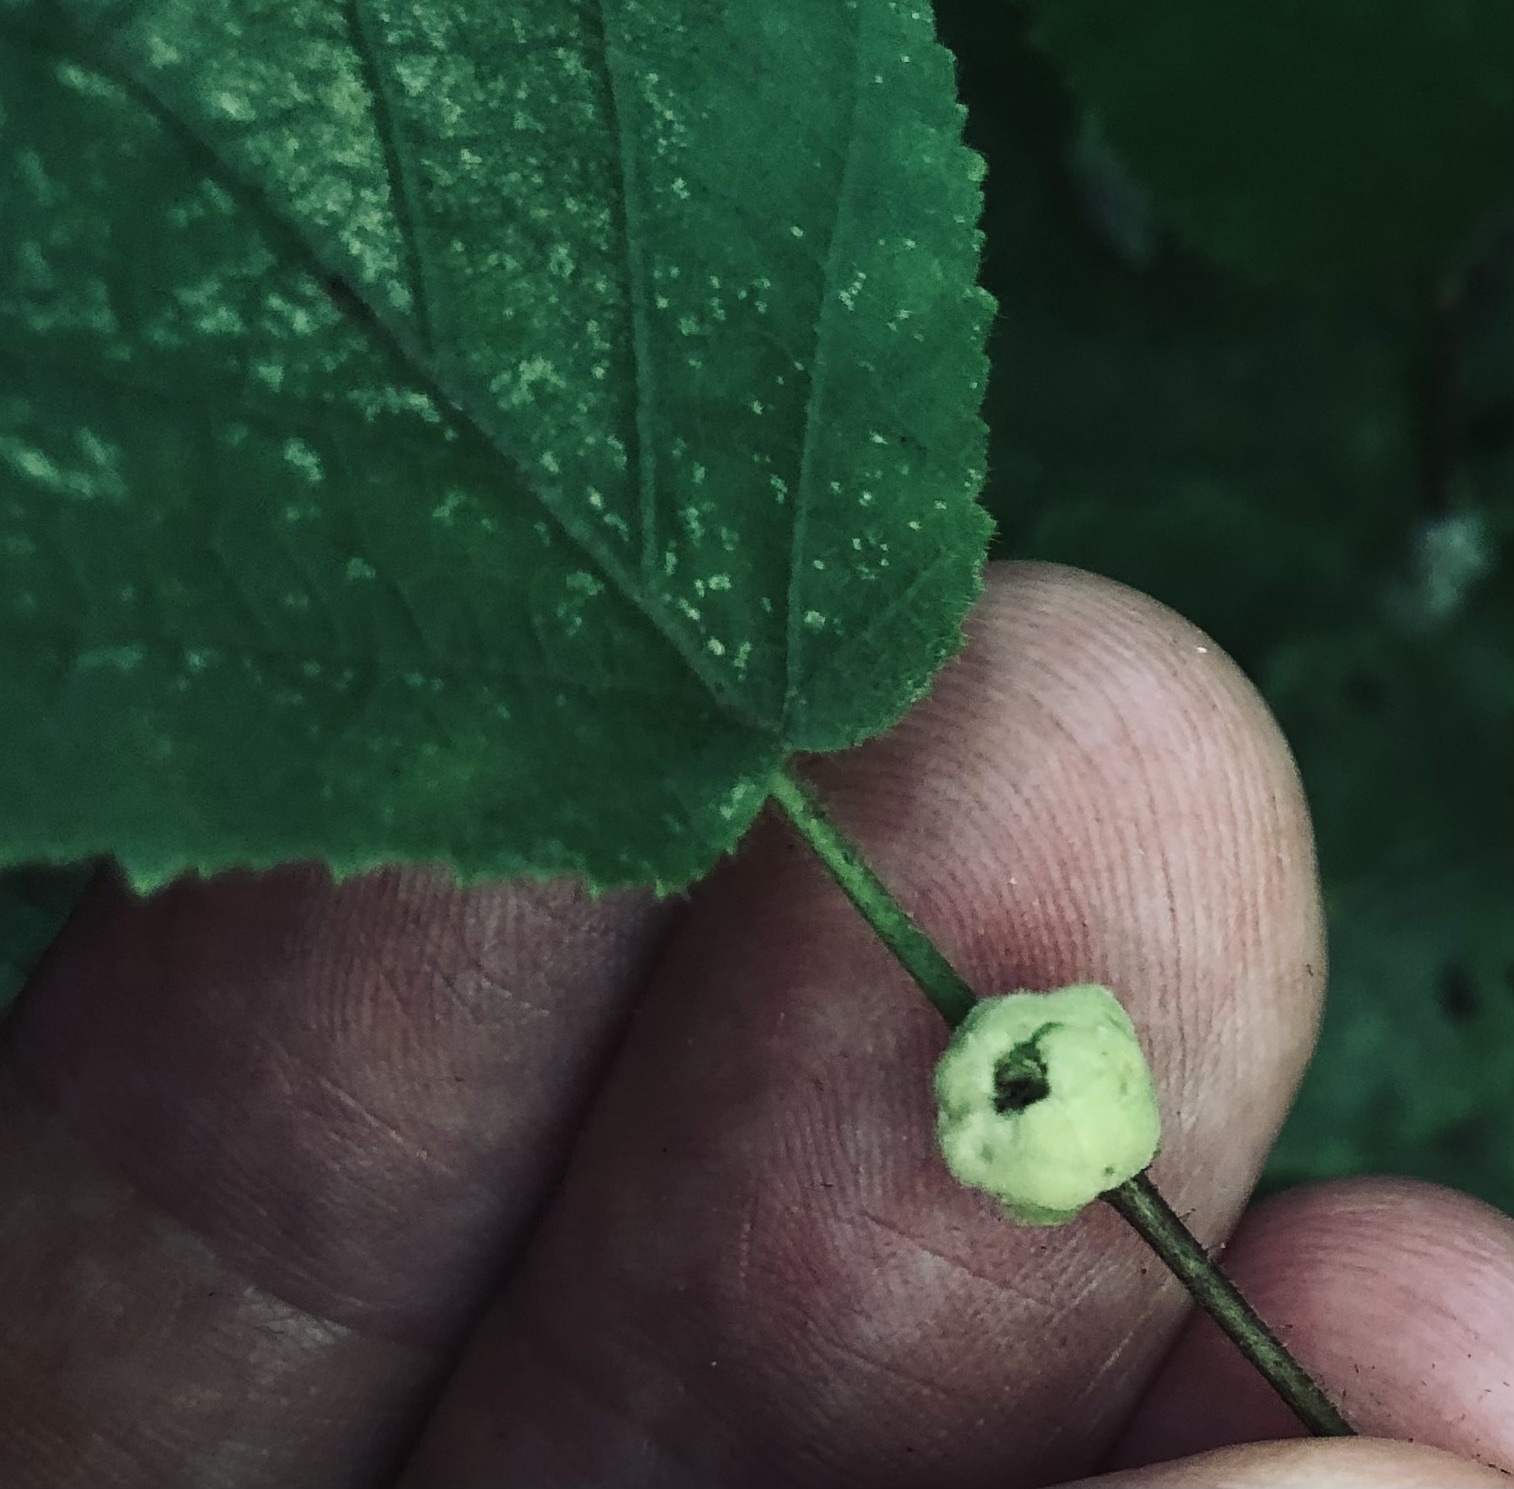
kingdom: Animalia
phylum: Arthropoda
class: Arachnida
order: Trombidiformes
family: Phytoptidae
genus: Phytoptus
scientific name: Phytoptus avellanae
